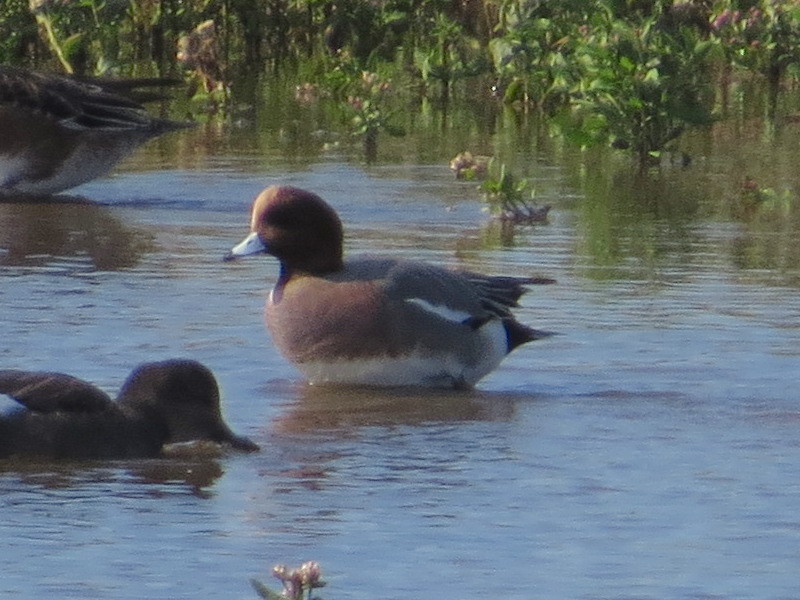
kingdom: Animalia
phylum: Chordata
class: Aves
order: Anseriformes
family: Anatidae
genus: Mareca
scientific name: Mareca penelope
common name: Eurasian wigeon
